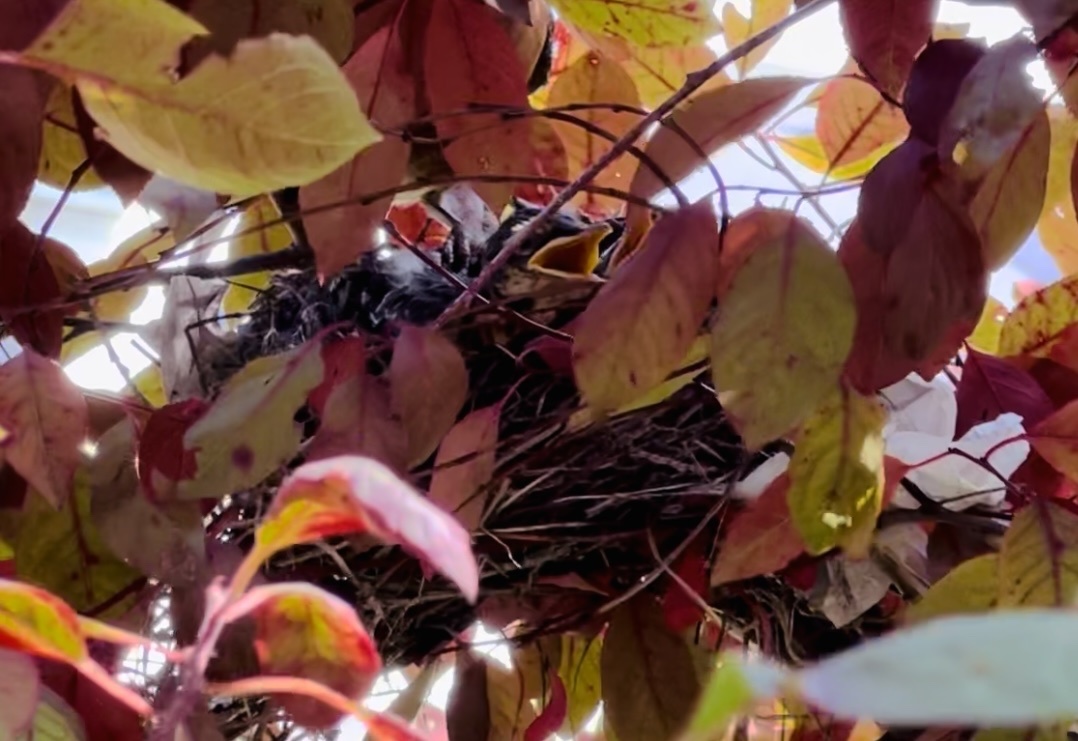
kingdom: Animalia
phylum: Chordata
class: Aves
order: Passeriformes
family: Turdidae
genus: Turdus
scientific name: Turdus migratorius
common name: American robin
